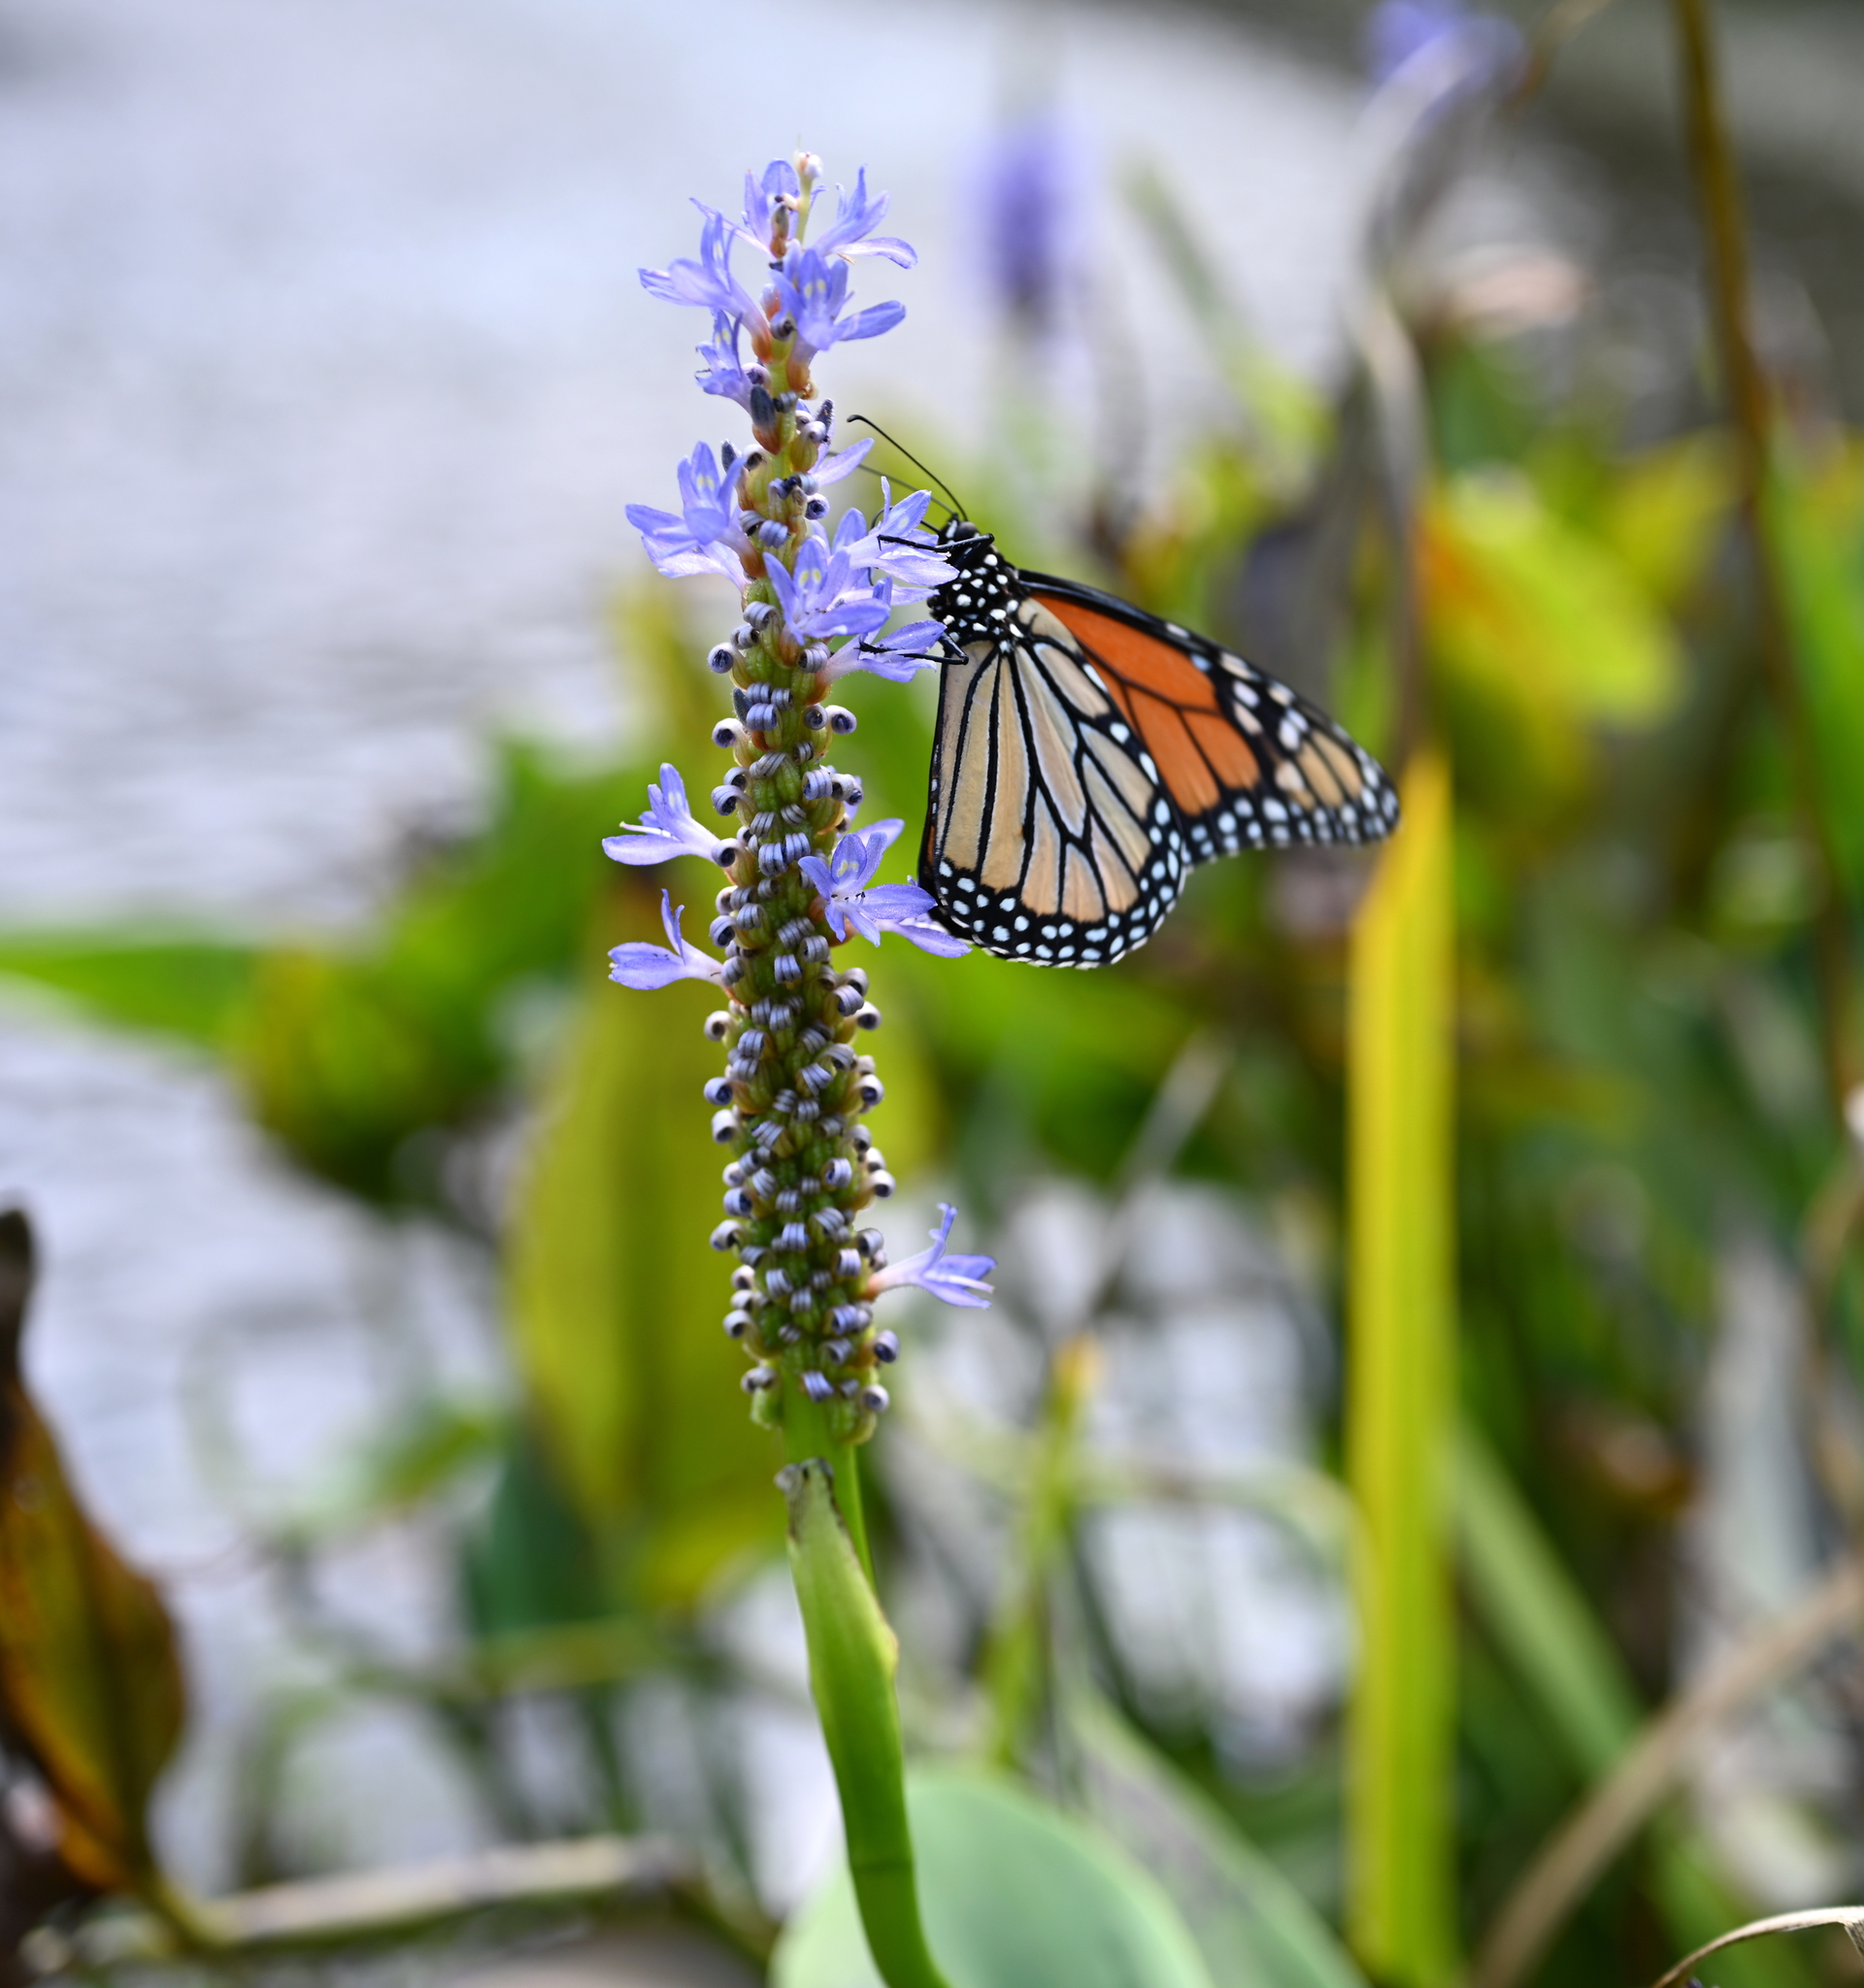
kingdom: Animalia
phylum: Arthropoda
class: Insecta
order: Lepidoptera
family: Nymphalidae
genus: Danaus
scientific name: Danaus plexippus
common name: Monarch
